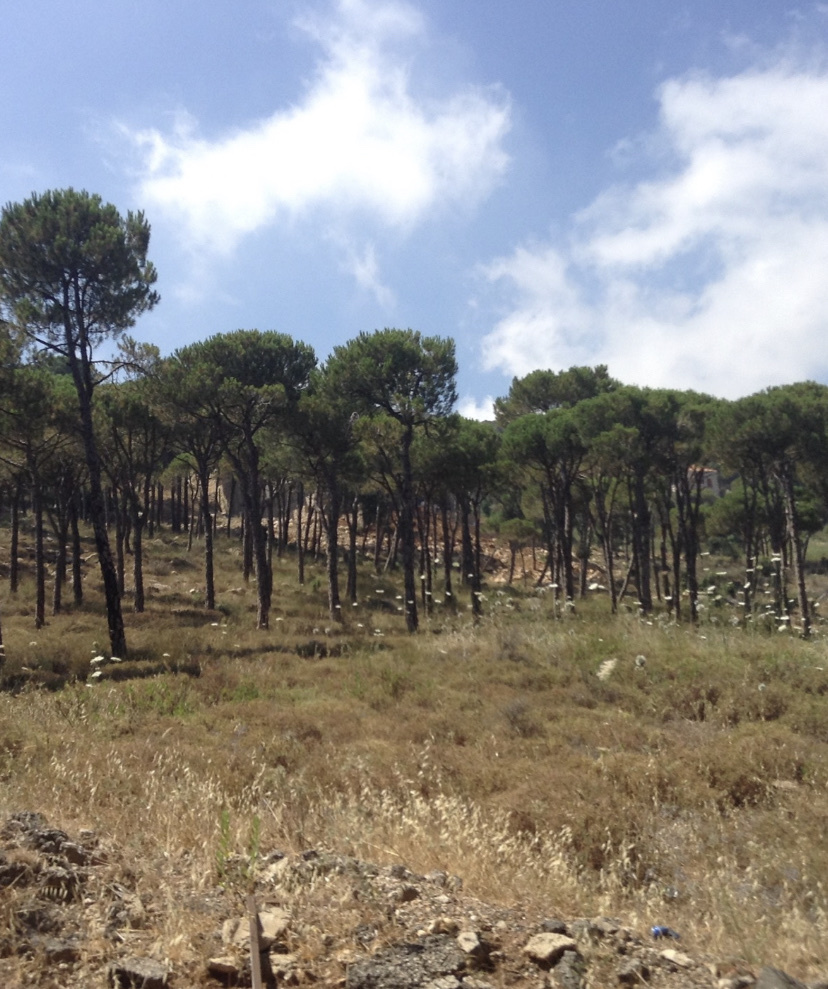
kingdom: Plantae
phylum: Tracheophyta
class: Pinopsida
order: Pinales
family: Pinaceae
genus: Pinus
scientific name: Pinus pinea
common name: Italian stone pine
